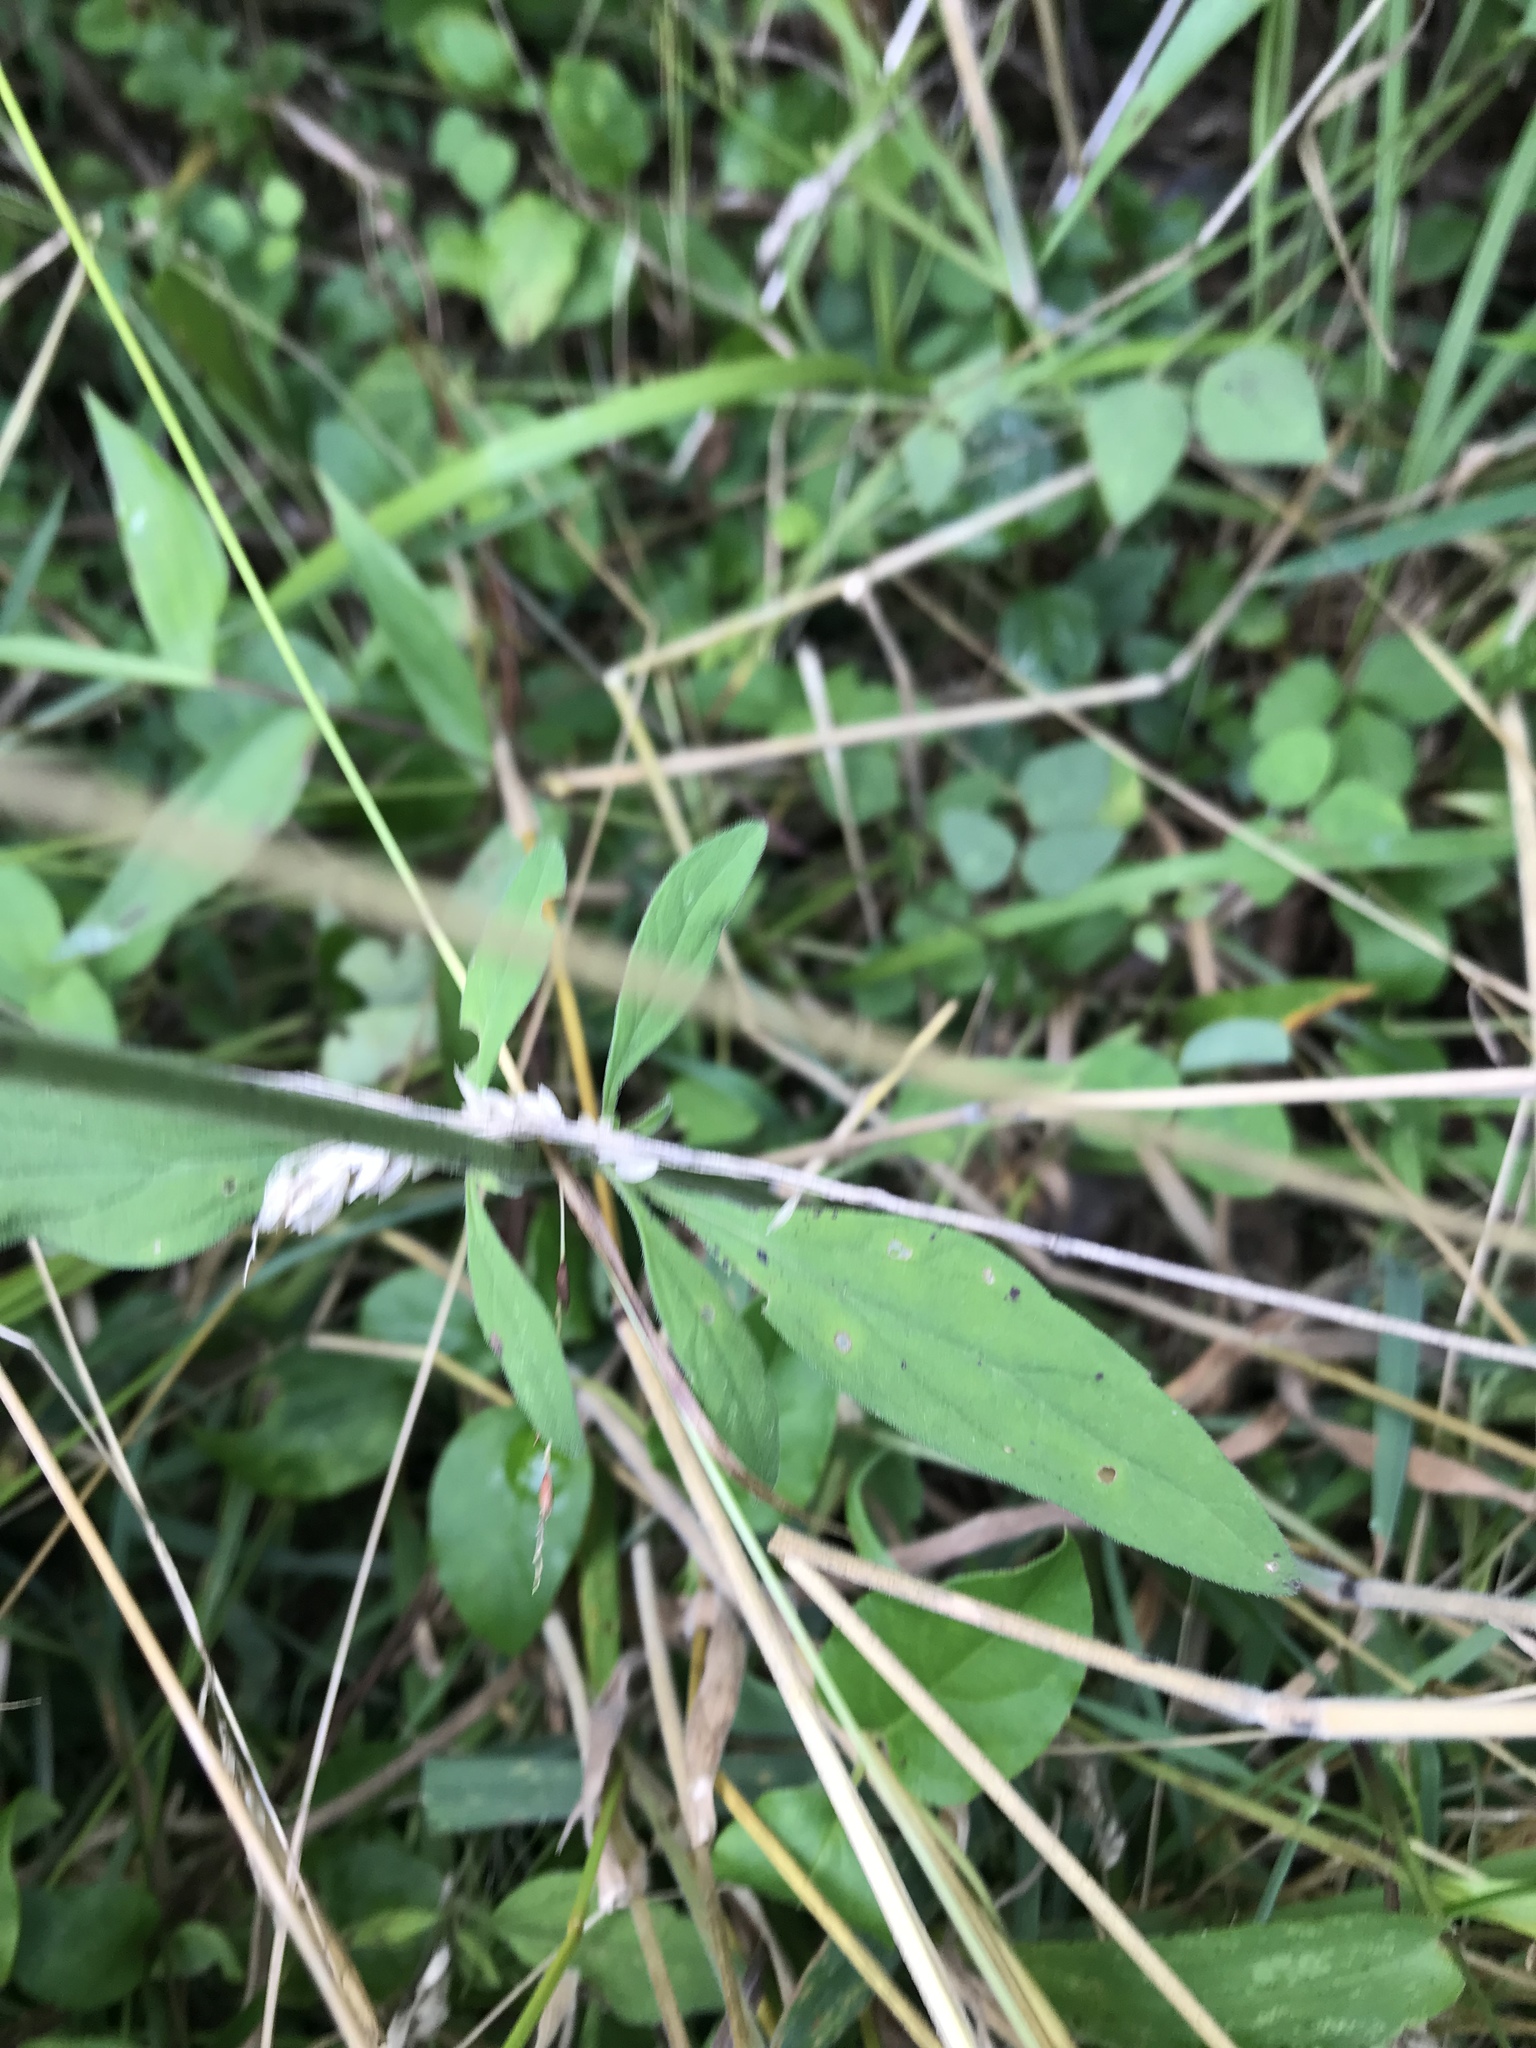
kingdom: Plantae
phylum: Tracheophyta
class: Magnoliopsida
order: Lamiales
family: Lamiaceae
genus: Scutellaria
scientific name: Scutellaria integrifolia
